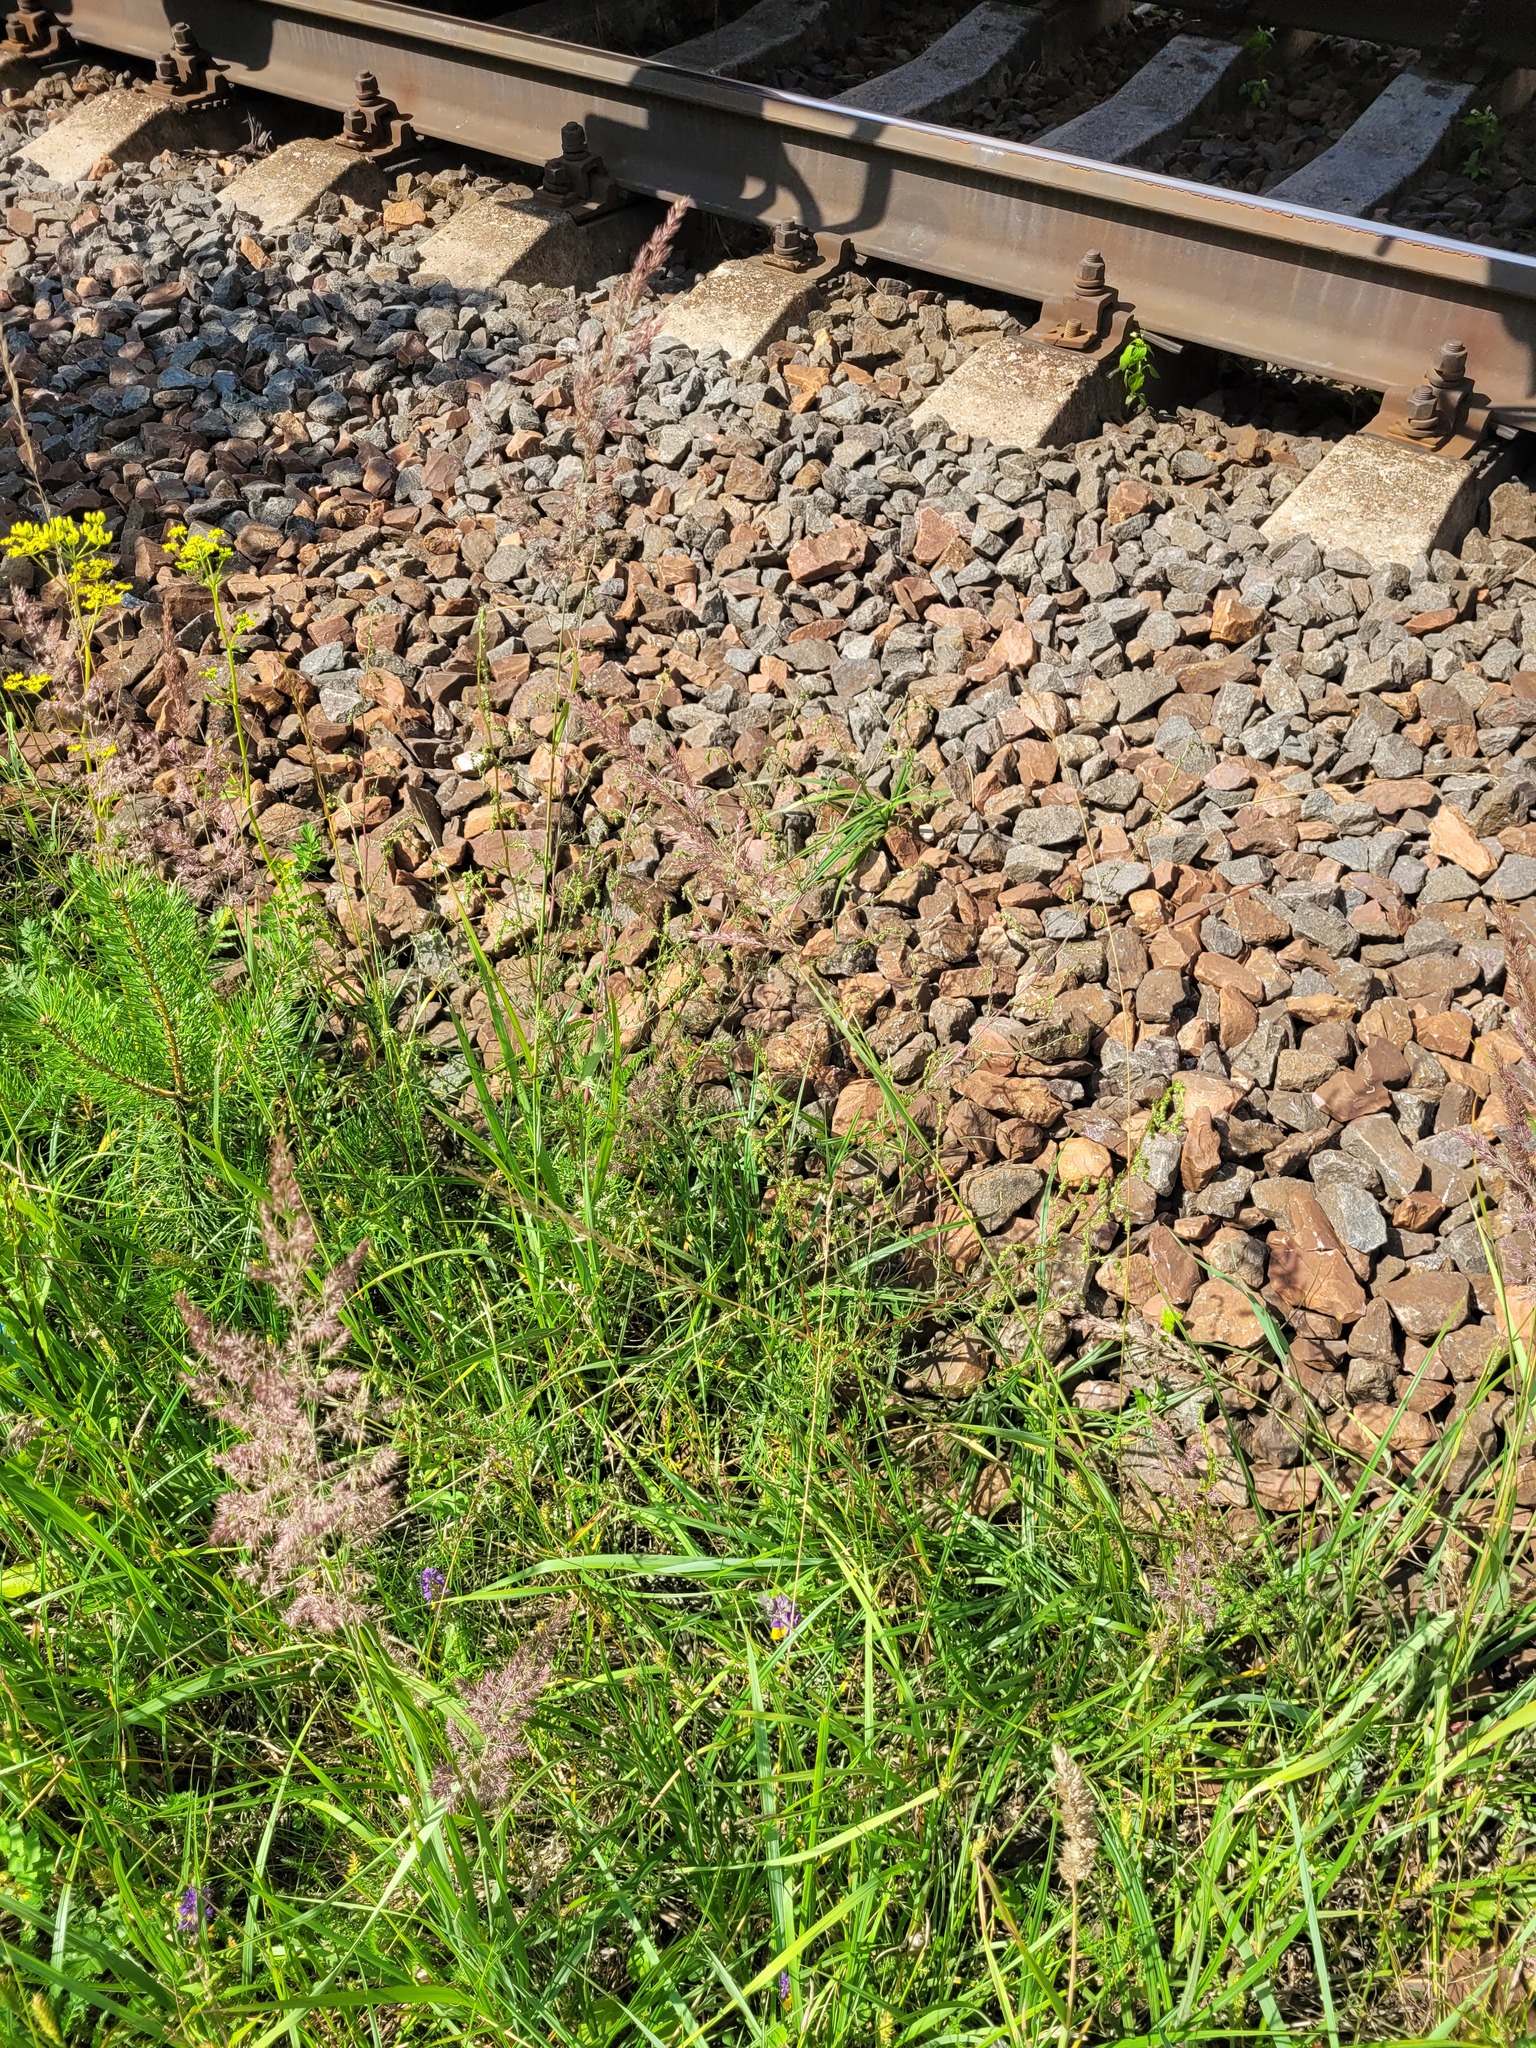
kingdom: Plantae
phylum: Tracheophyta
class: Magnoliopsida
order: Asterales
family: Asteraceae
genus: Artemisia
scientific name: Artemisia campestris
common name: Field wormwood
